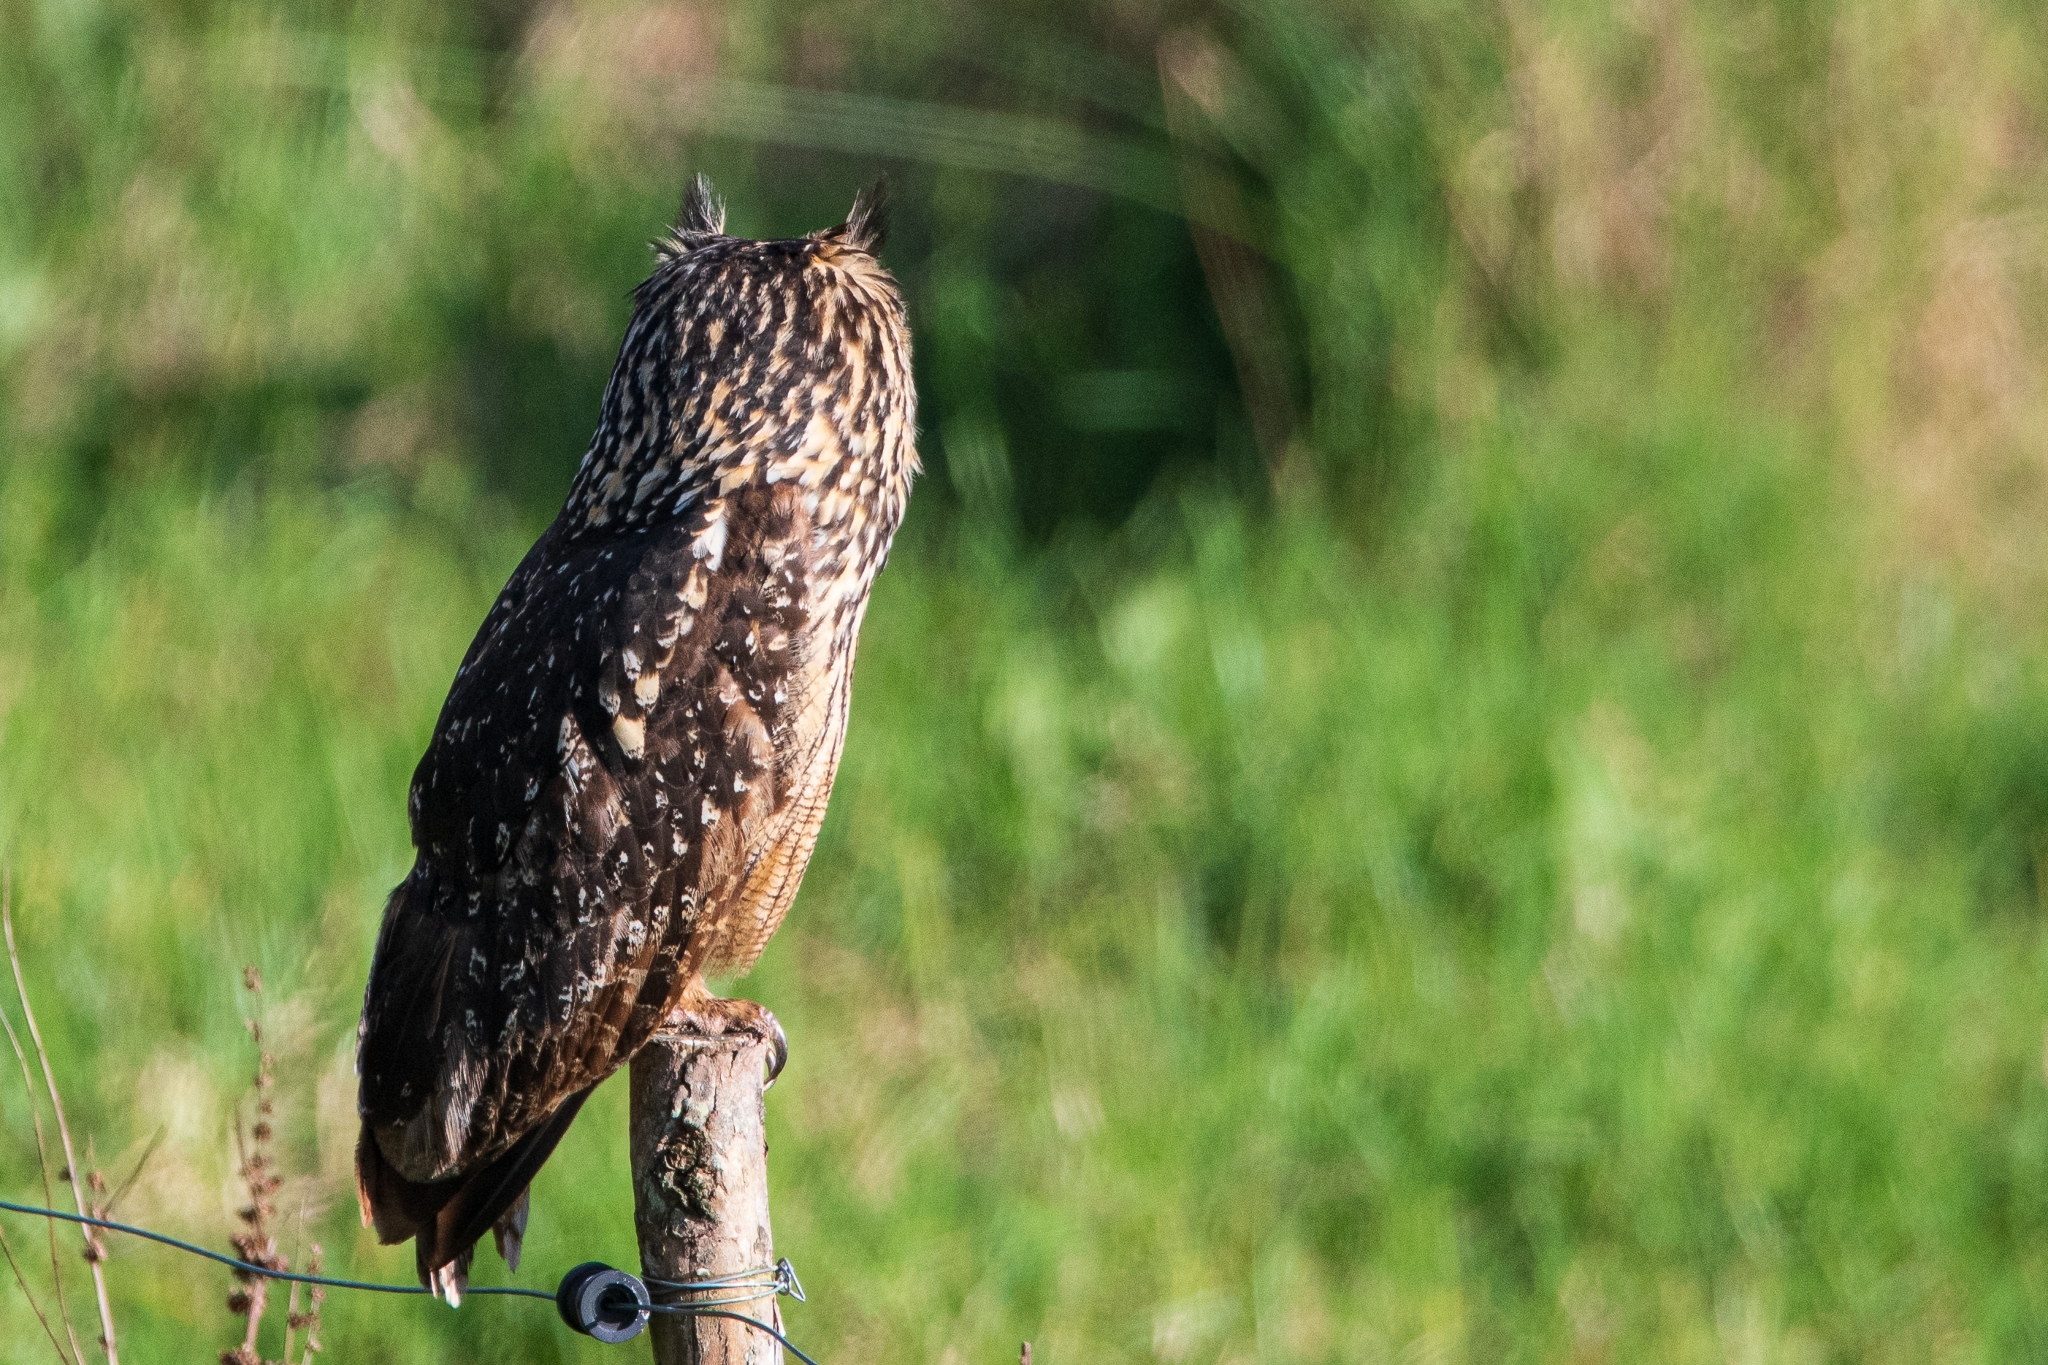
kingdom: Animalia
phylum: Chordata
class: Aves
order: Strigiformes
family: Strigidae
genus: Bubo
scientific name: Bubo bengalensis
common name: Indian eagle-owl
